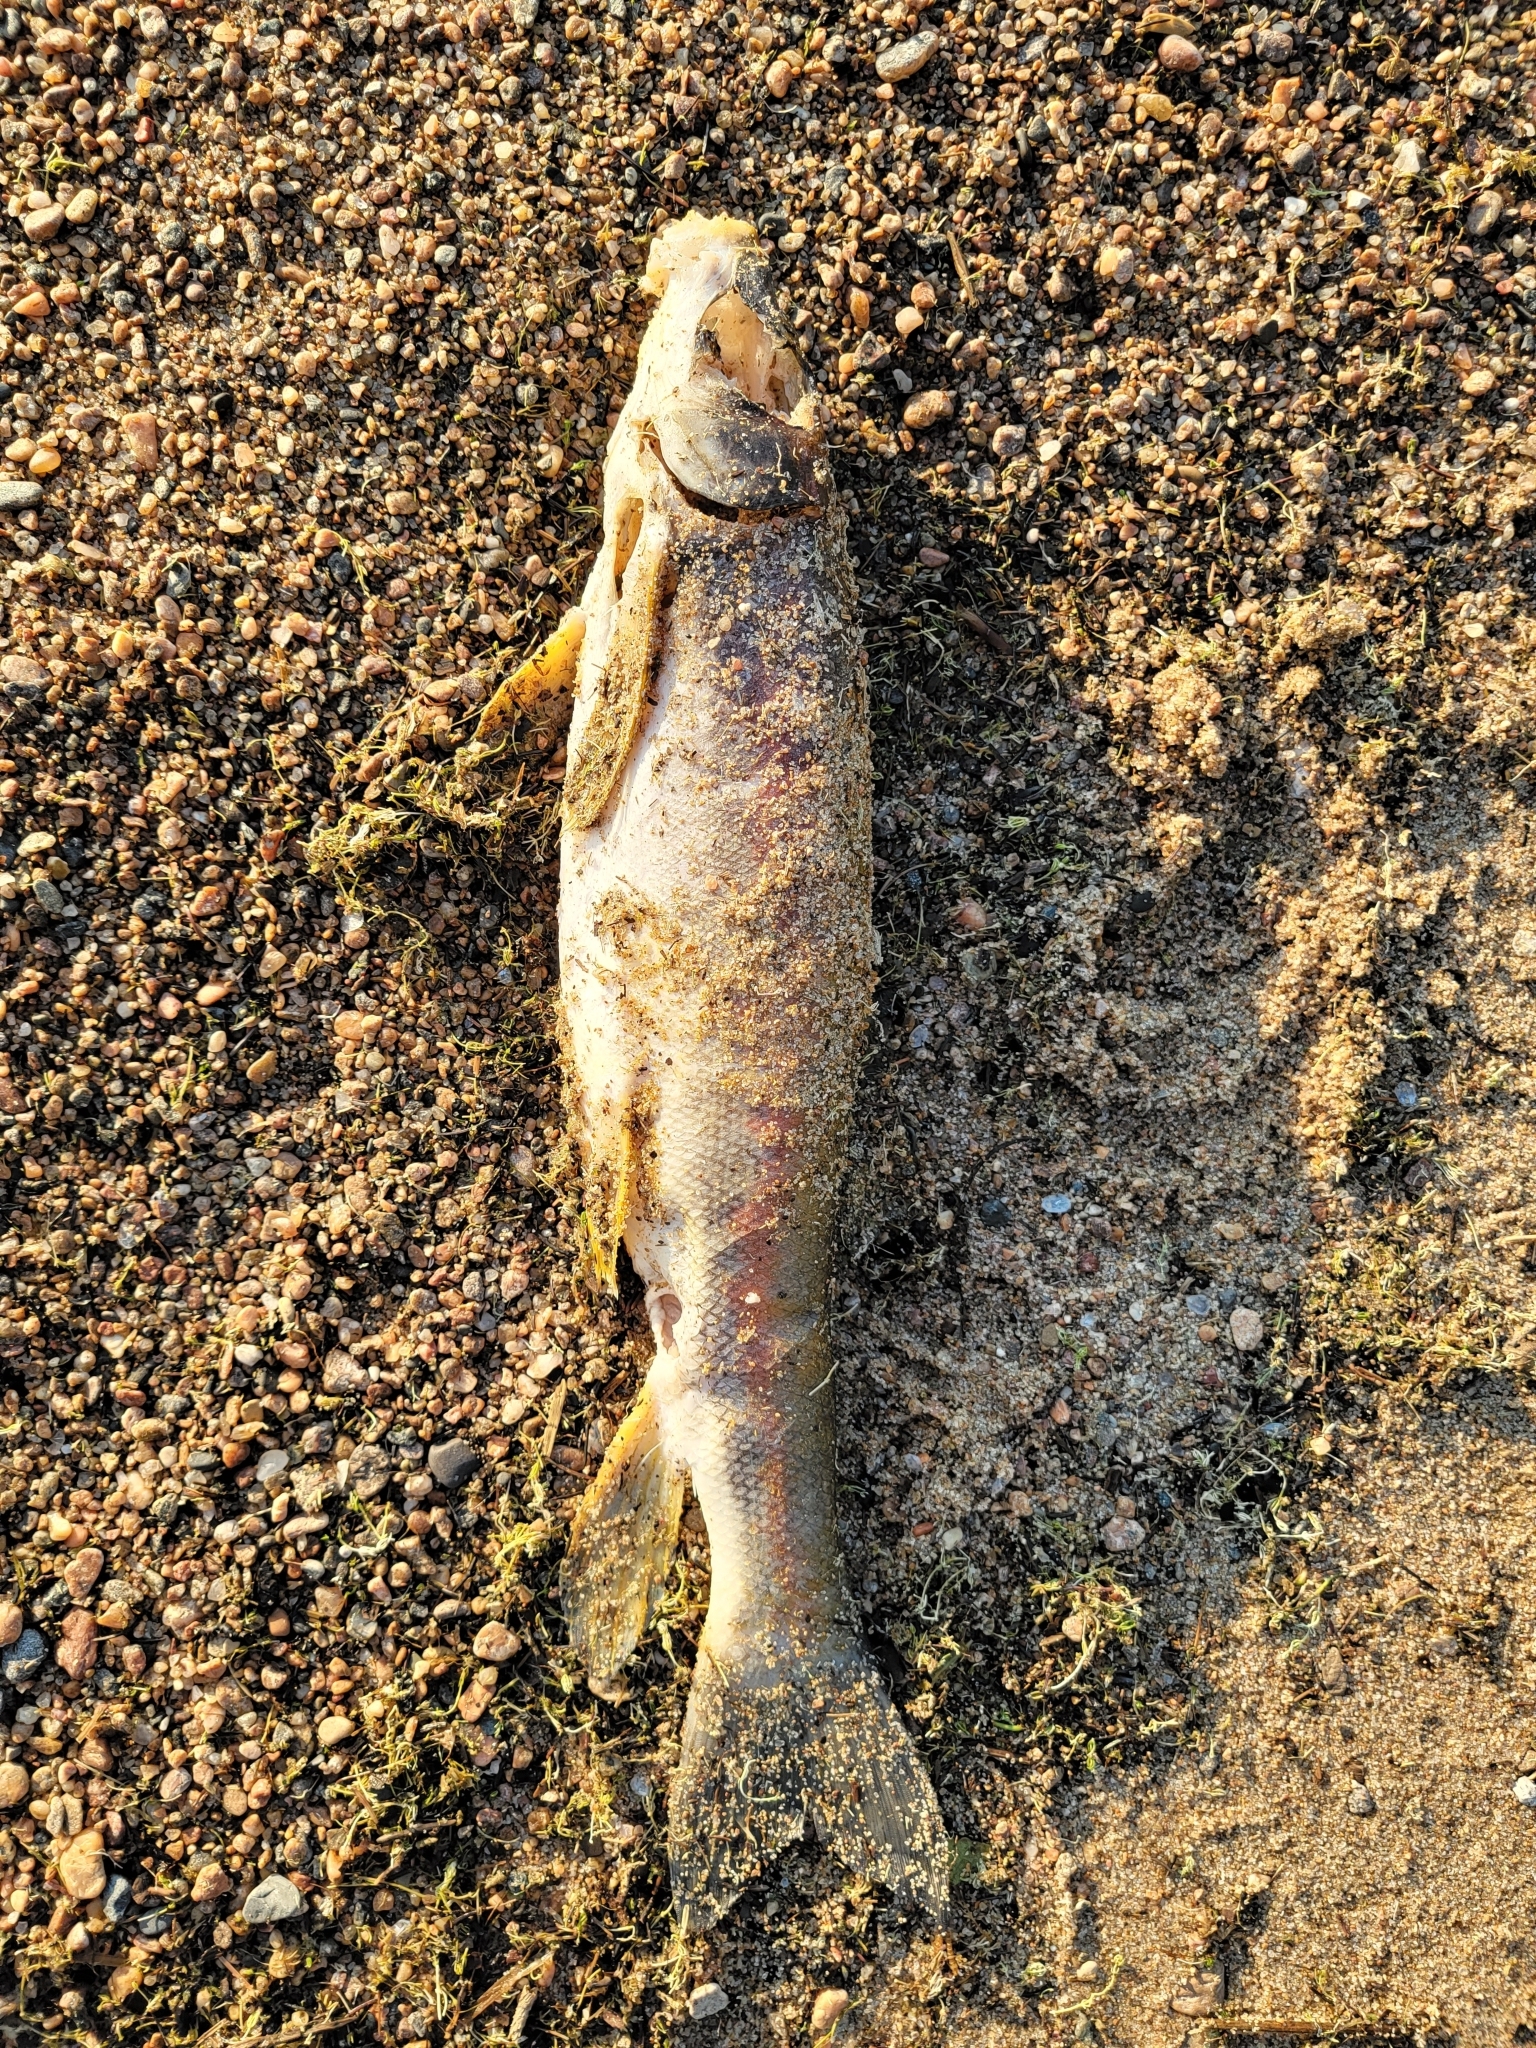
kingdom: Animalia
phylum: Chordata
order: Cypriniformes
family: Catostomidae
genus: Catostomus
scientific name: Catostomus catostomus
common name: Longnose sucker
